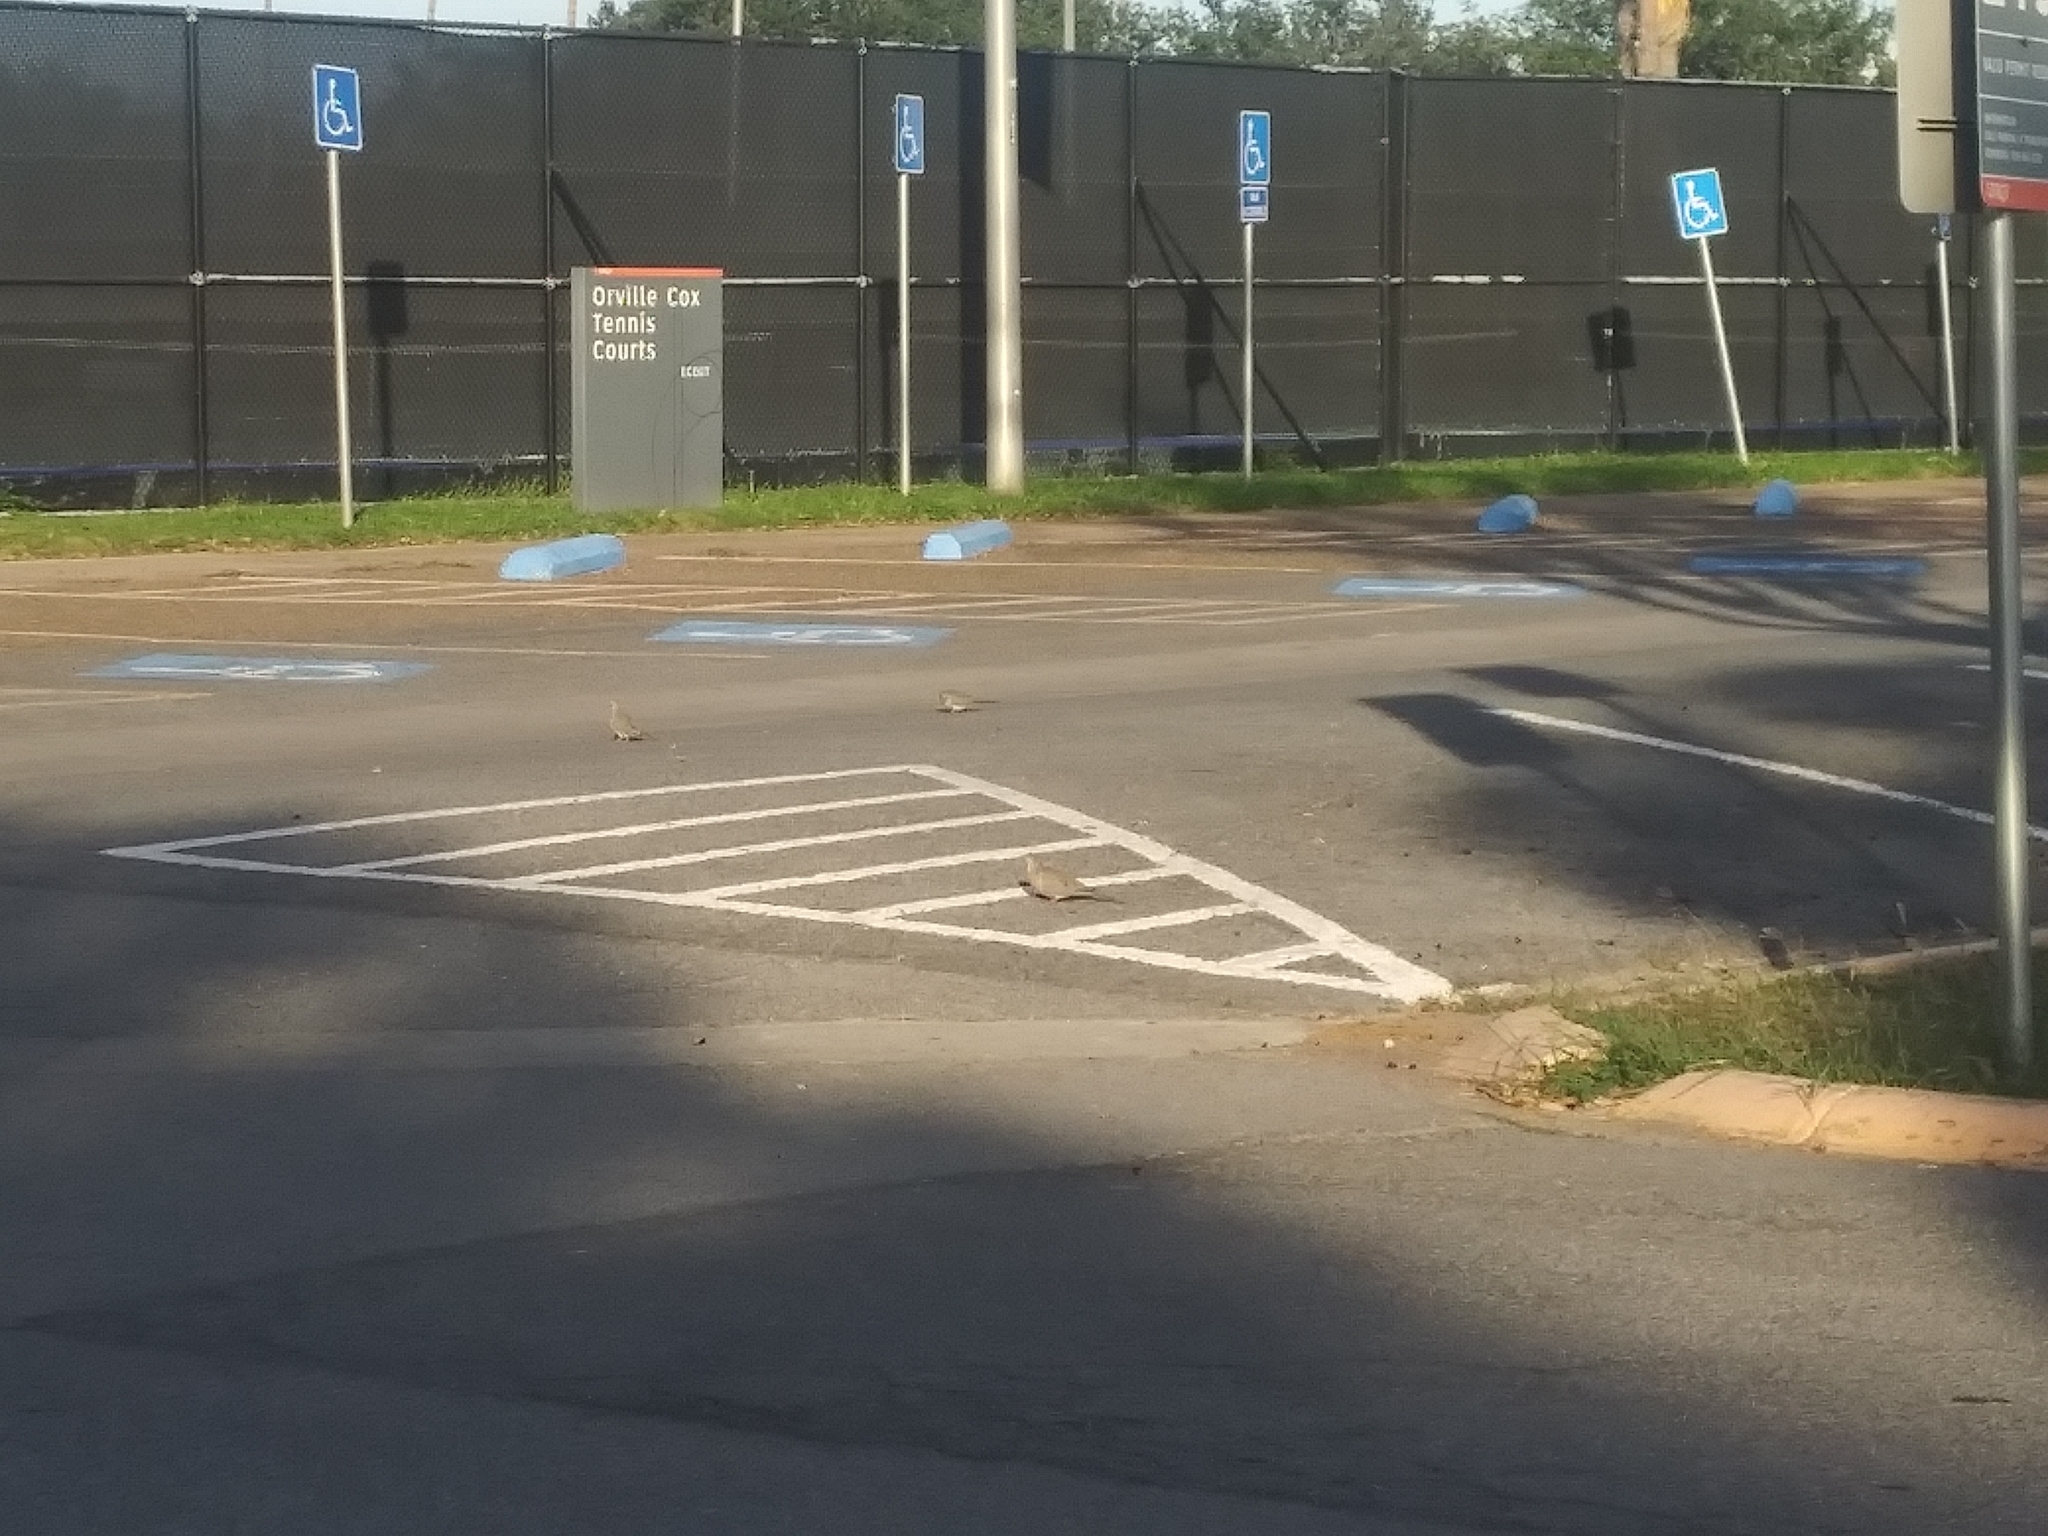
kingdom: Animalia
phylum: Chordata
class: Aves
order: Columbiformes
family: Columbidae
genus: Zenaida
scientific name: Zenaida macroura
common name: Mourning dove
